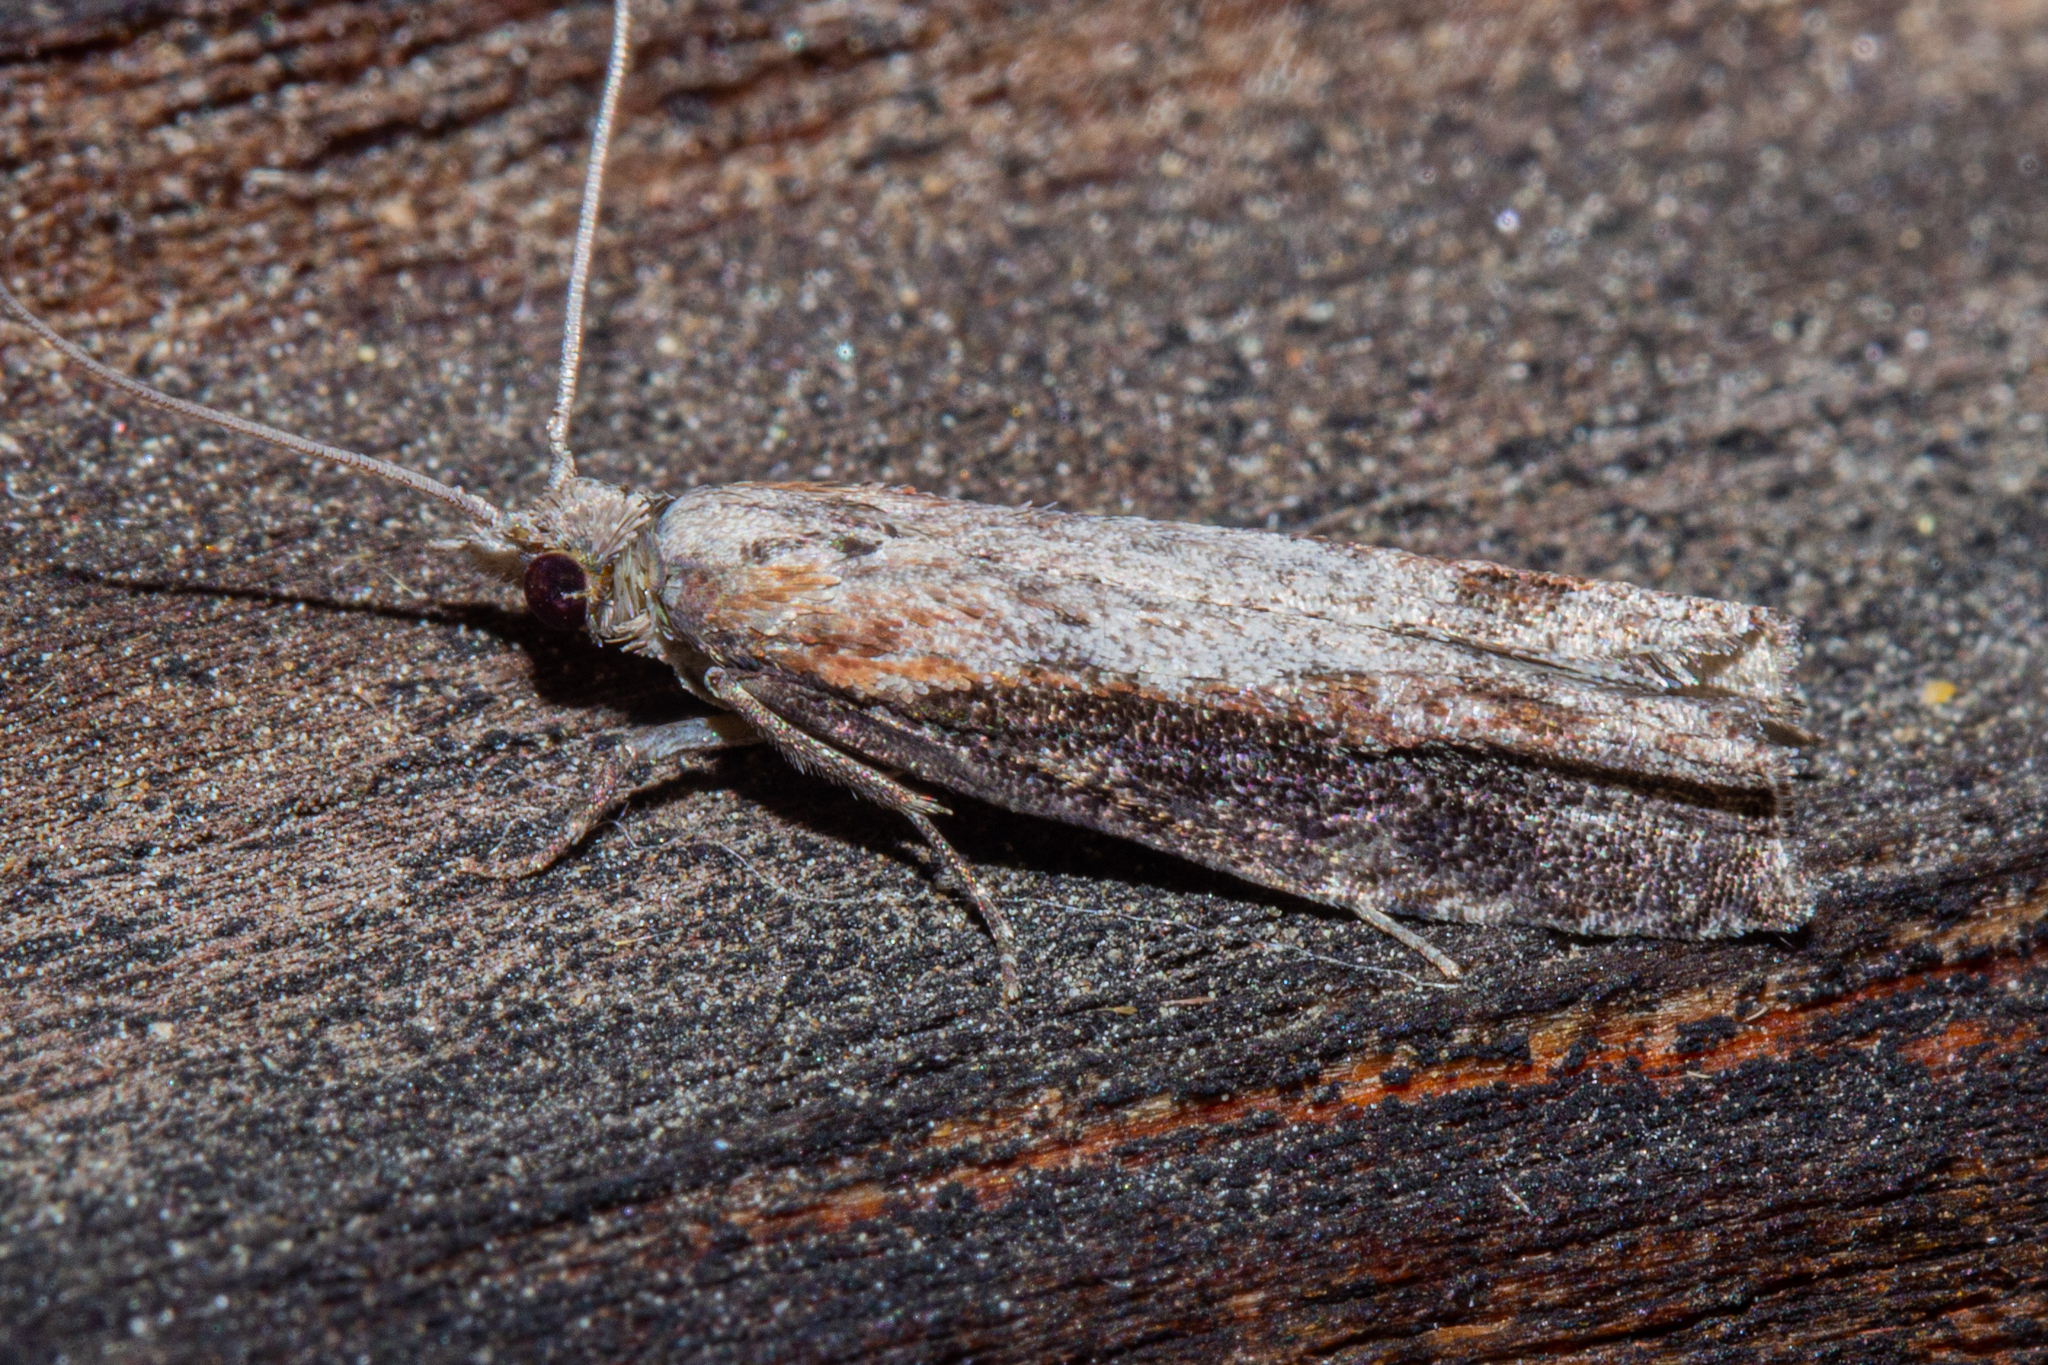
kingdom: Animalia
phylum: Arthropoda
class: Insecta
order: Lepidoptera
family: Tortricidae
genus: Strepsicrates
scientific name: Strepsicrates infensa
